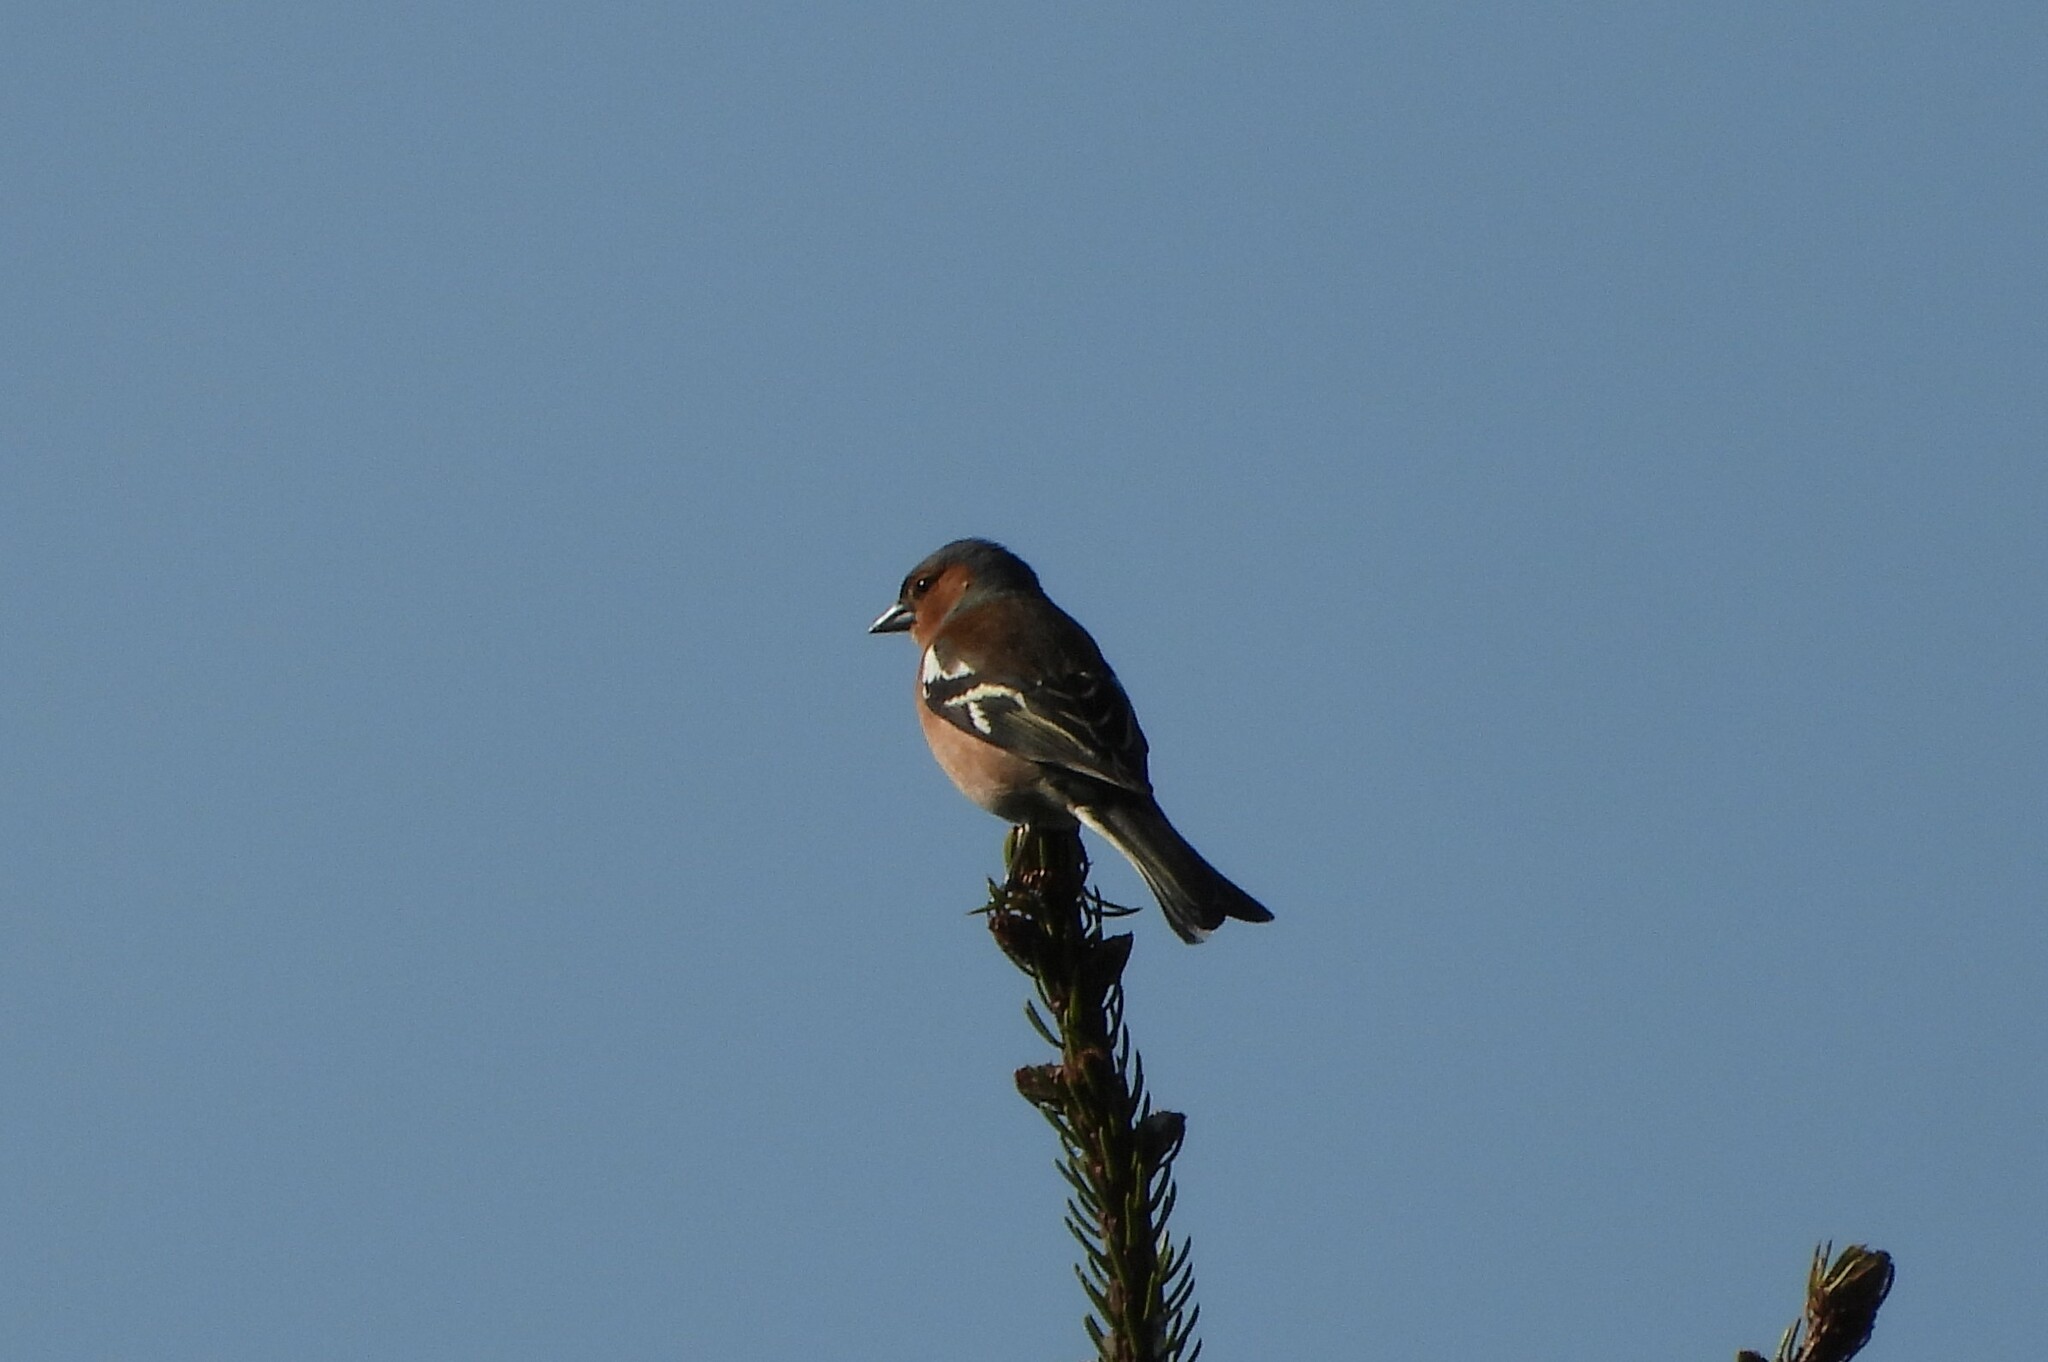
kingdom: Animalia
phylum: Chordata
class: Aves
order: Passeriformes
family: Fringillidae
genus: Fringilla
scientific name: Fringilla coelebs
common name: Common chaffinch
